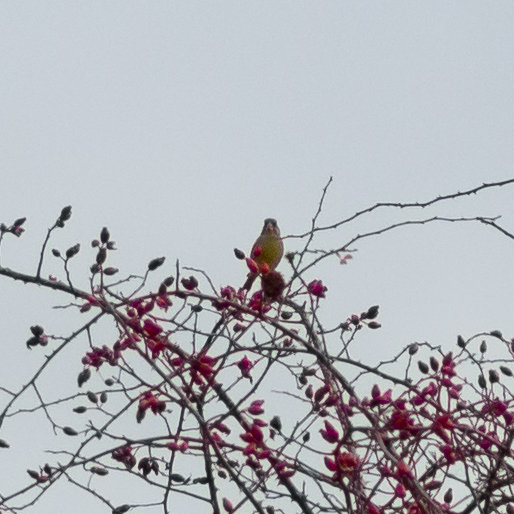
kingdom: Plantae
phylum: Tracheophyta
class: Liliopsida
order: Poales
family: Poaceae
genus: Chloris
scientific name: Chloris chloris
